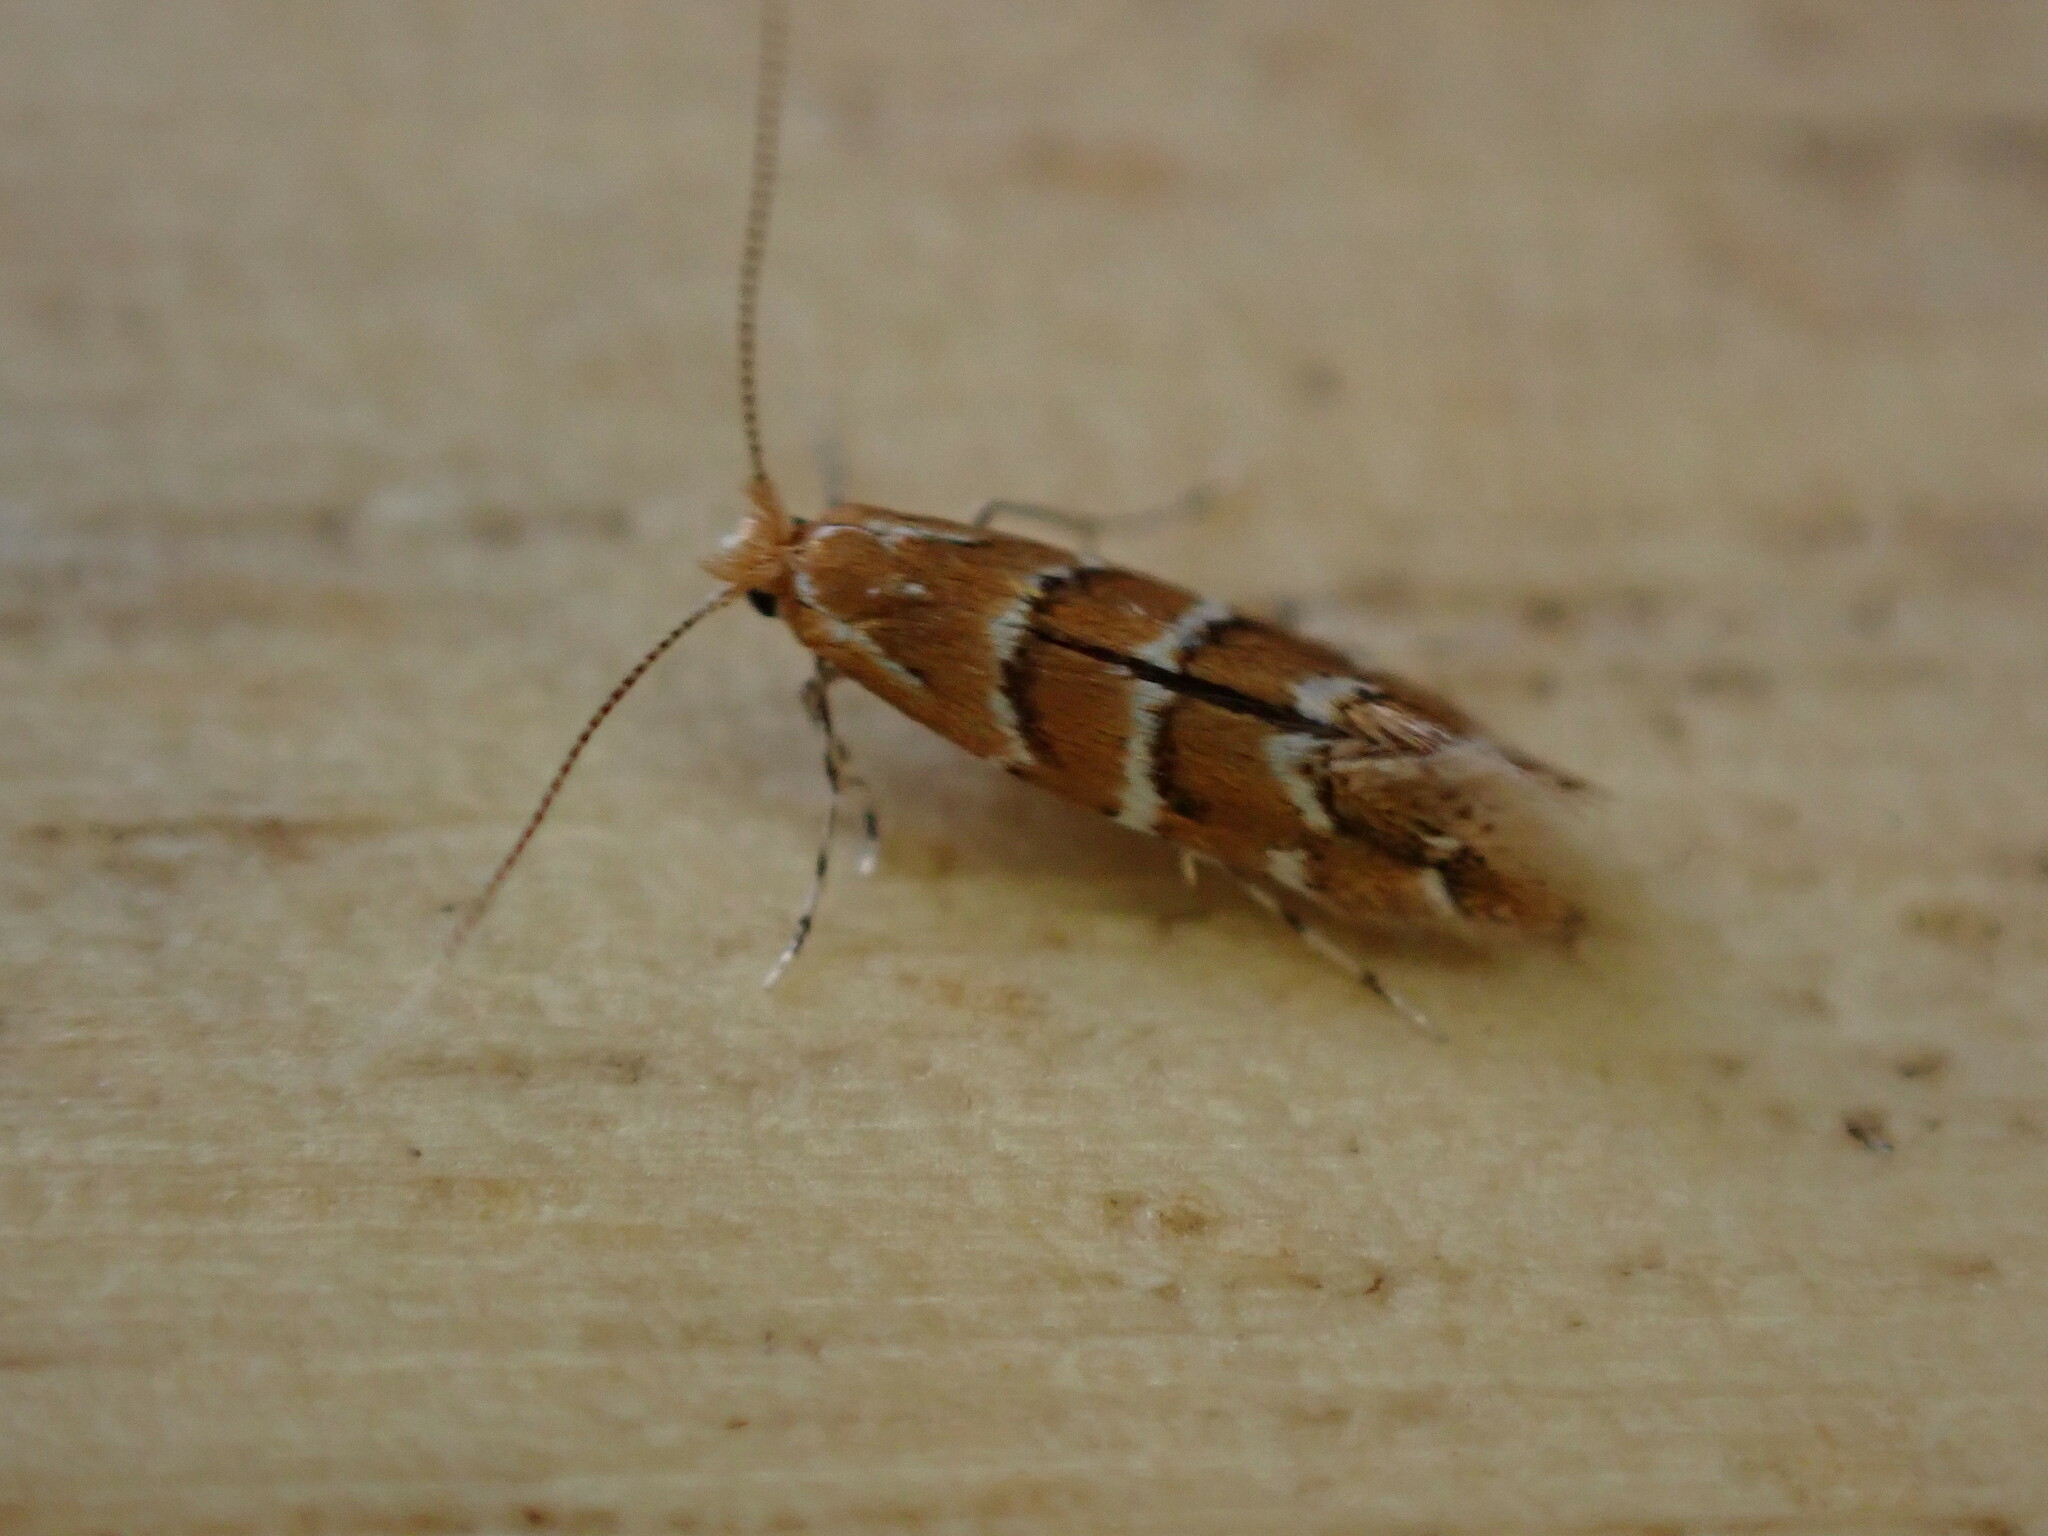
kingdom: Animalia
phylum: Arthropoda
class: Insecta
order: Lepidoptera
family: Gracillariidae
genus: Cameraria
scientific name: Cameraria ohridella
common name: Horse-chestnut leaf-miner
